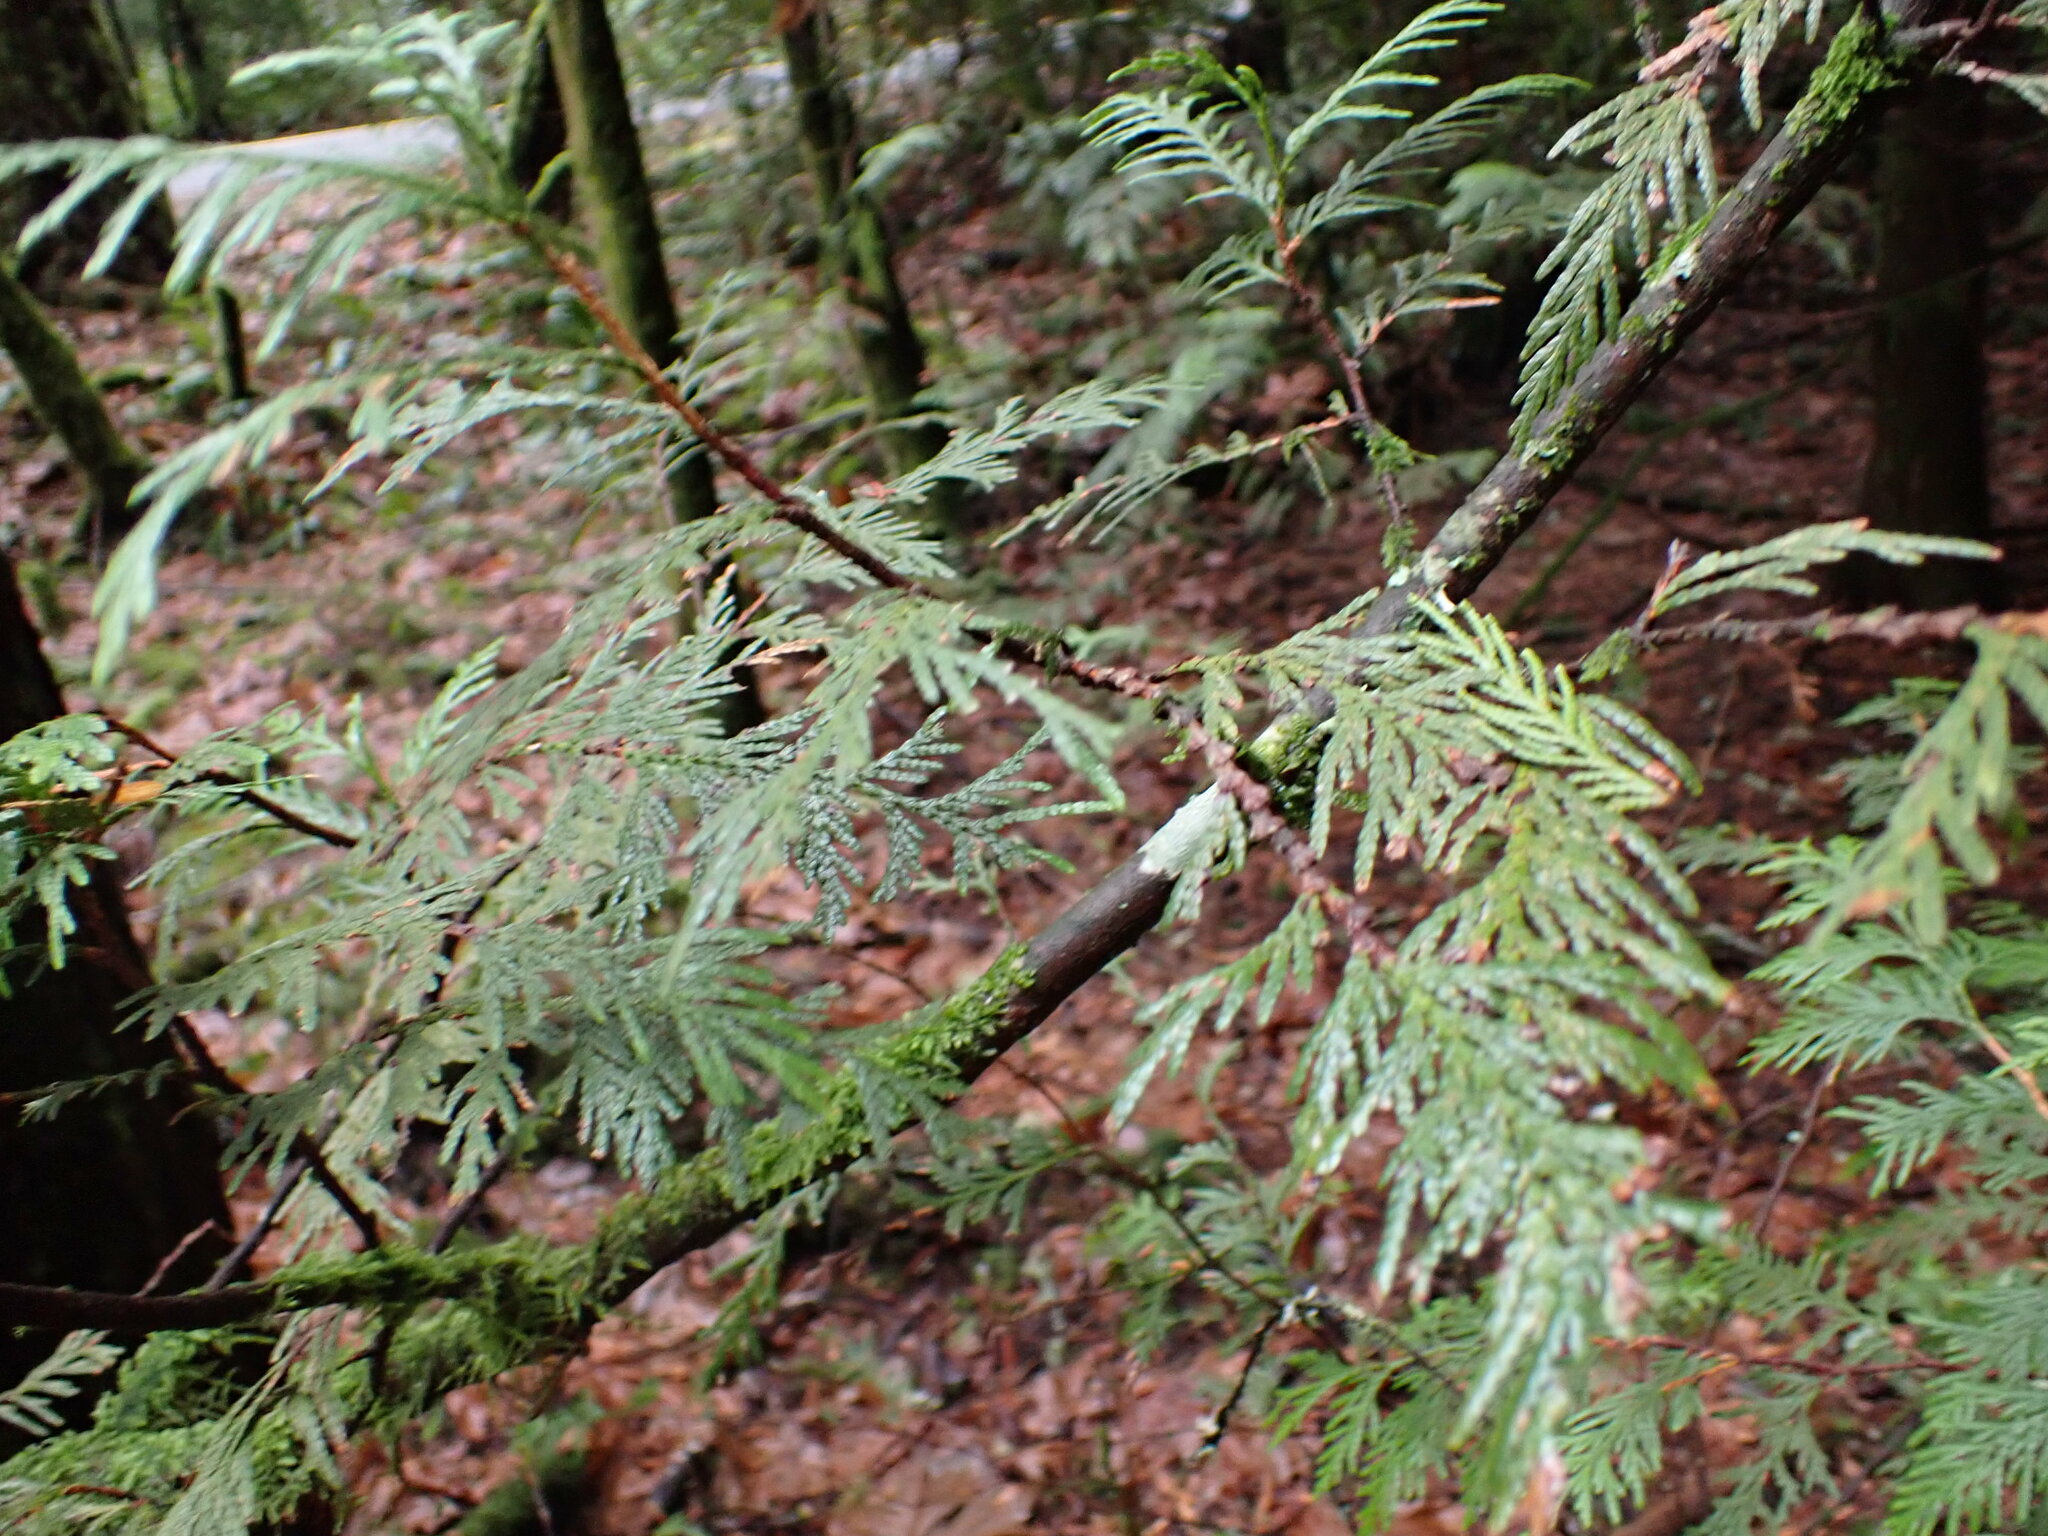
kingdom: Plantae
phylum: Tracheophyta
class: Pinopsida
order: Pinales
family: Cupressaceae
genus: Thuja
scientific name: Thuja plicata
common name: Western red-cedar
